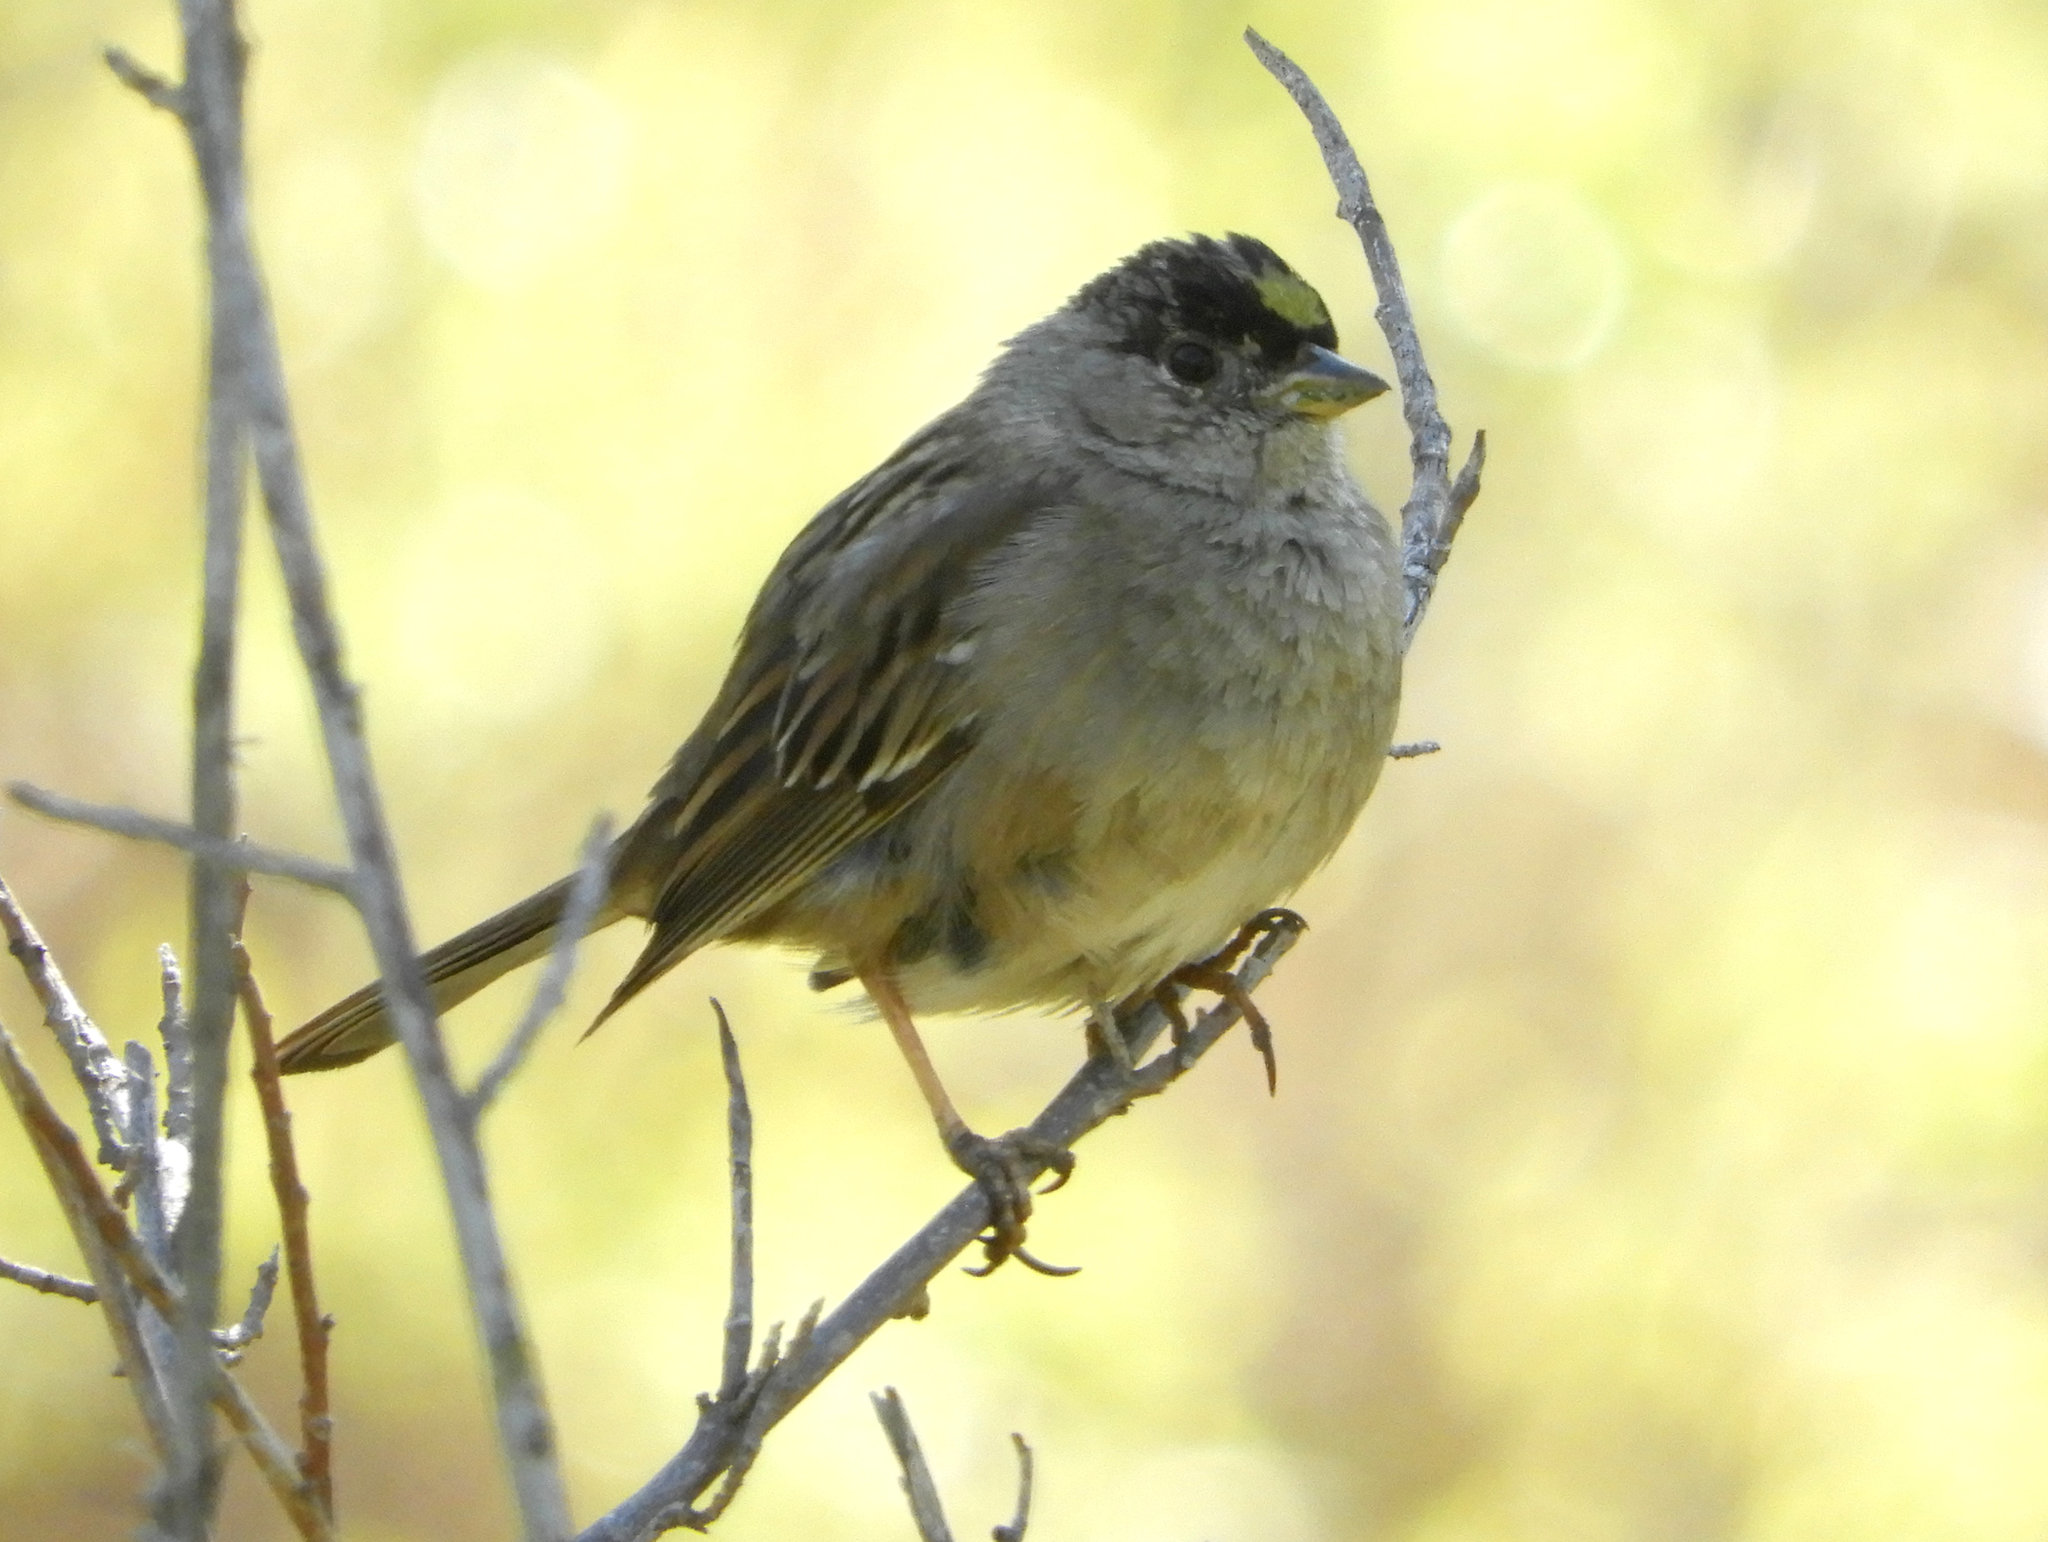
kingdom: Animalia
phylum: Chordata
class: Aves
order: Passeriformes
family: Passerellidae
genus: Zonotrichia
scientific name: Zonotrichia atricapilla
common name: Golden-crowned sparrow
